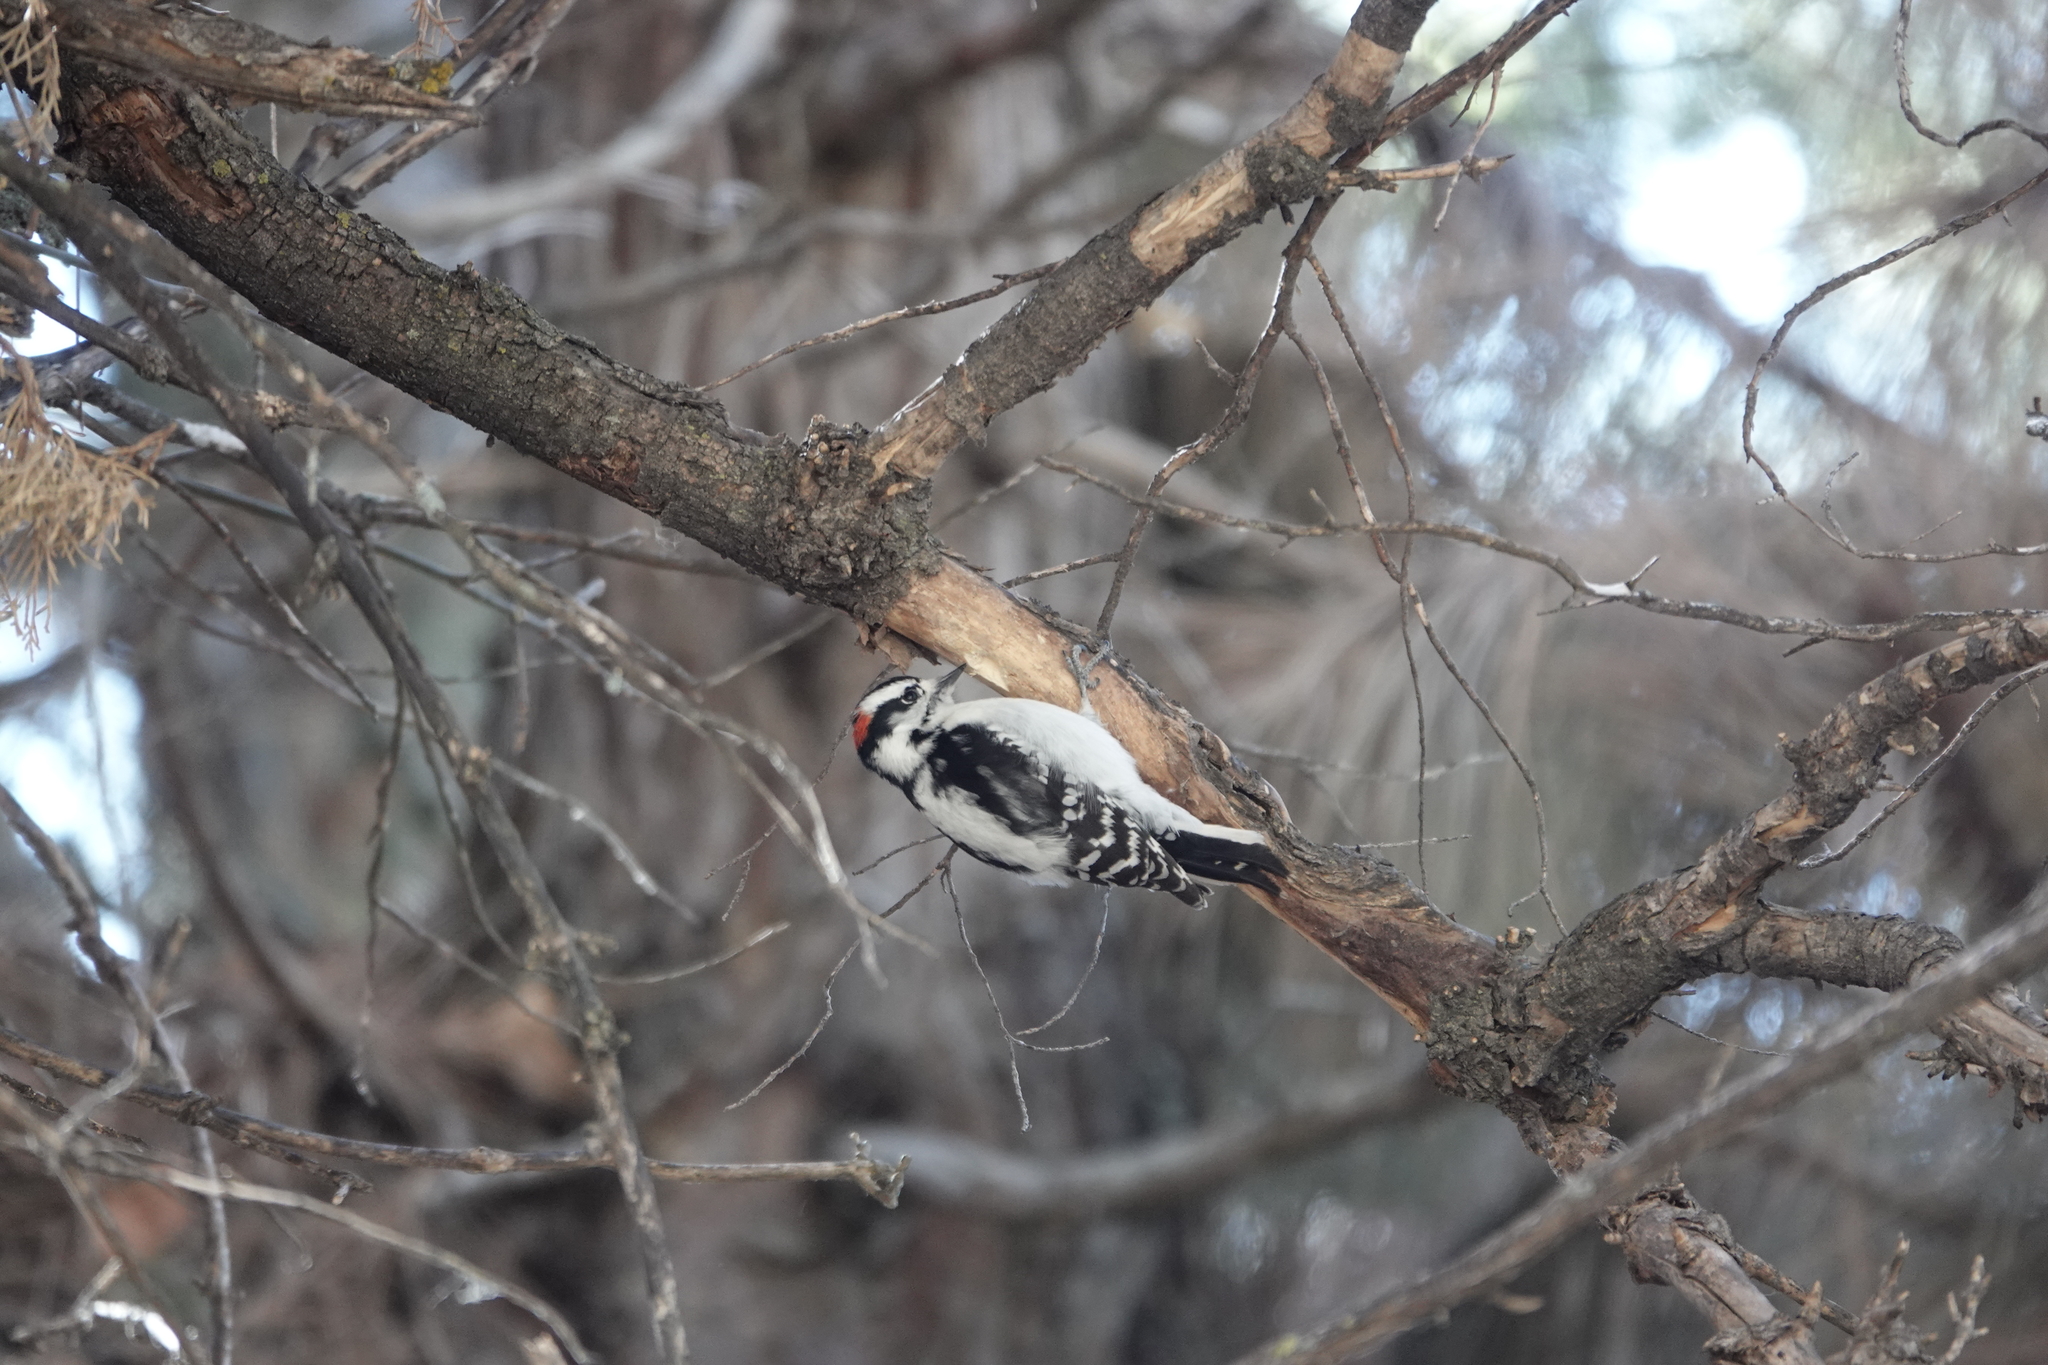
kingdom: Animalia
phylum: Chordata
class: Aves
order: Piciformes
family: Picidae
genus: Dryobates
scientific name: Dryobates pubescens
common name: Downy woodpecker
